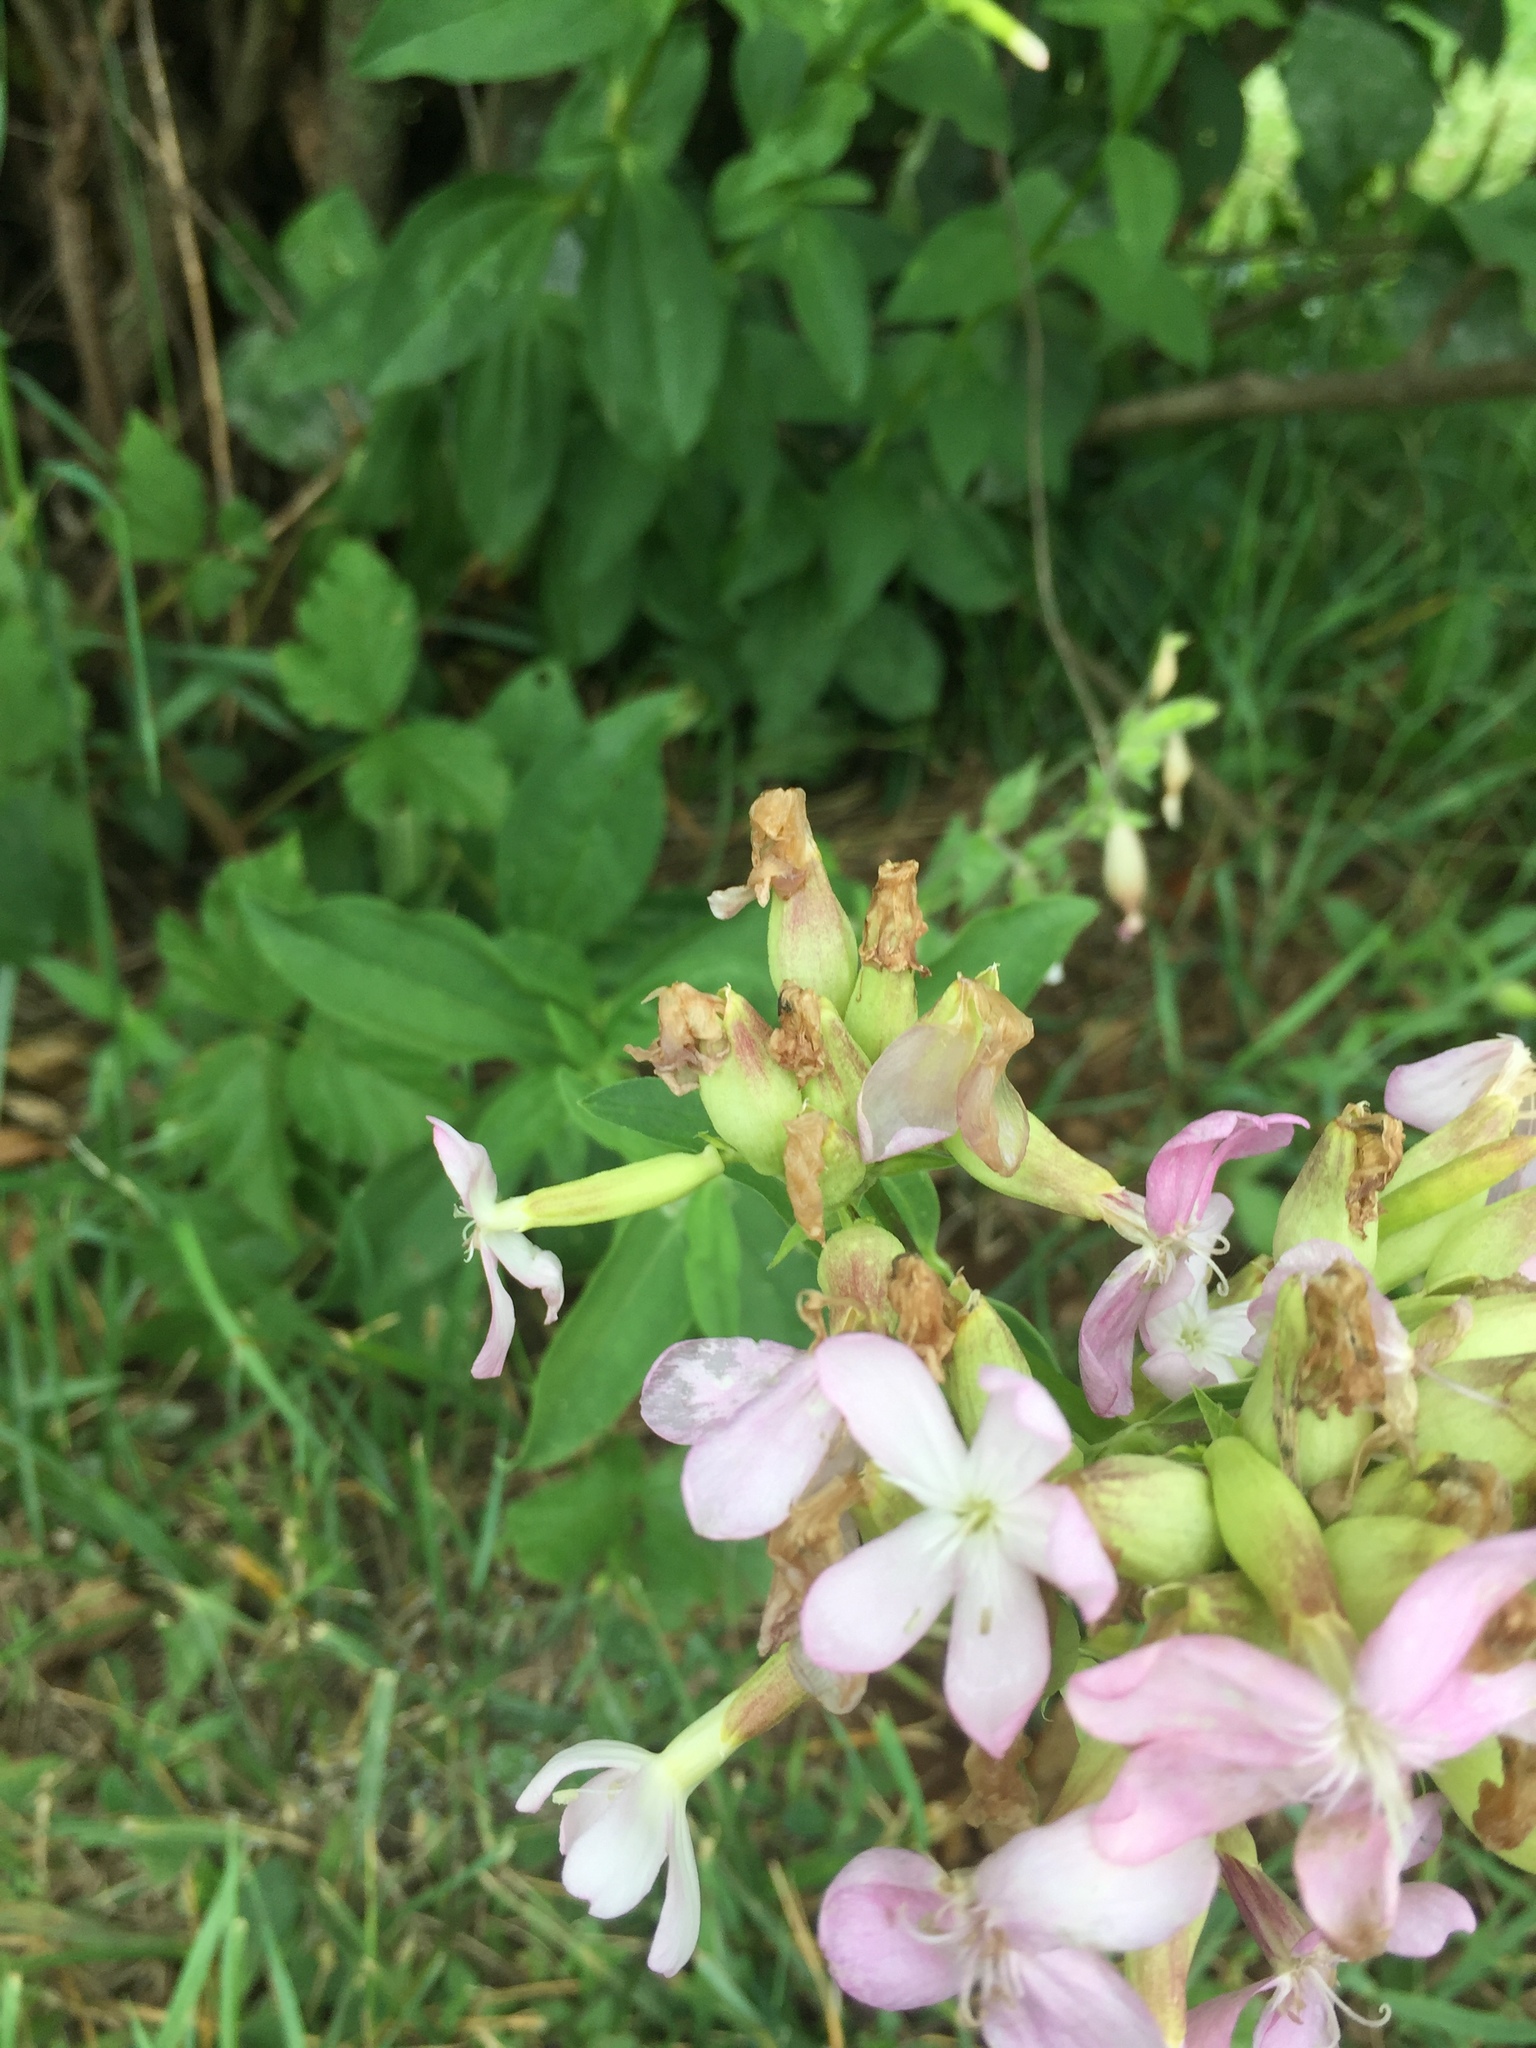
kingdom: Plantae
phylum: Tracheophyta
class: Magnoliopsida
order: Caryophyllales
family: Caryophyllaceae
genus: Saponaria
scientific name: Saponaria officinalis
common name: Soapwort
